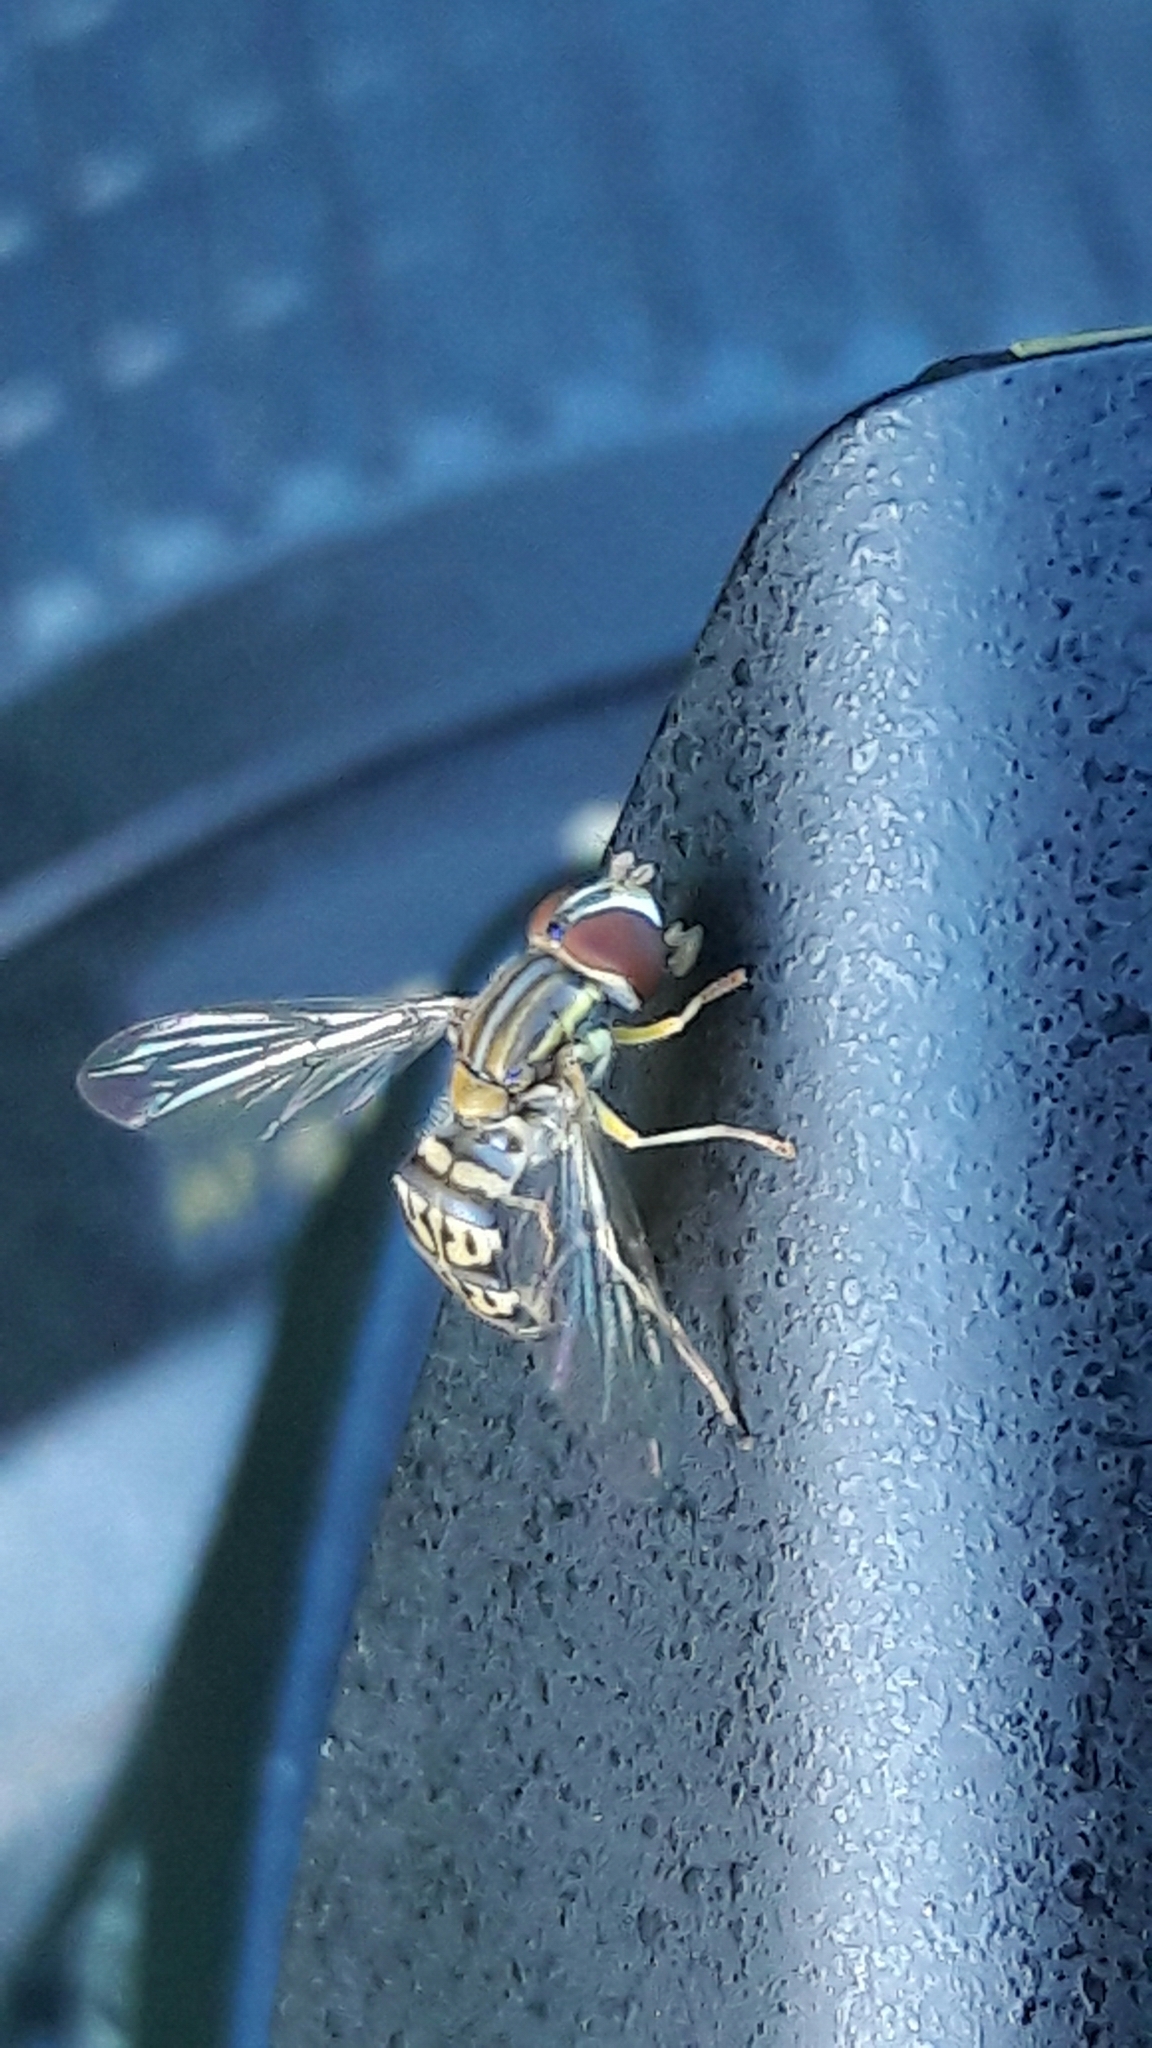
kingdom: Animalia
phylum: Arthropoda
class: Insecta
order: Diptera
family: Syrphidae
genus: Toxomerus
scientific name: Toxomerus
